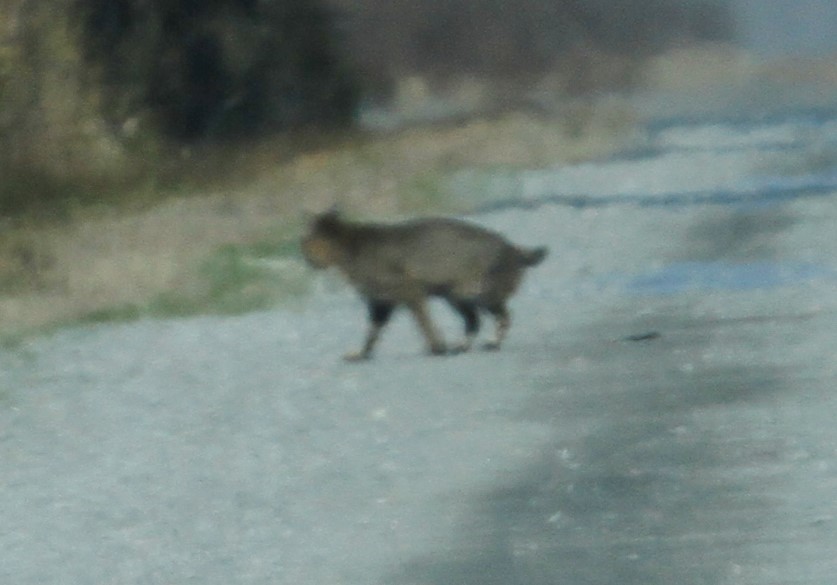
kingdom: Animalia
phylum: Chordata
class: Mammalia
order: Carnivora
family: Felidae
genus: Lynx
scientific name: Lynx rufus
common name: Bobcat
